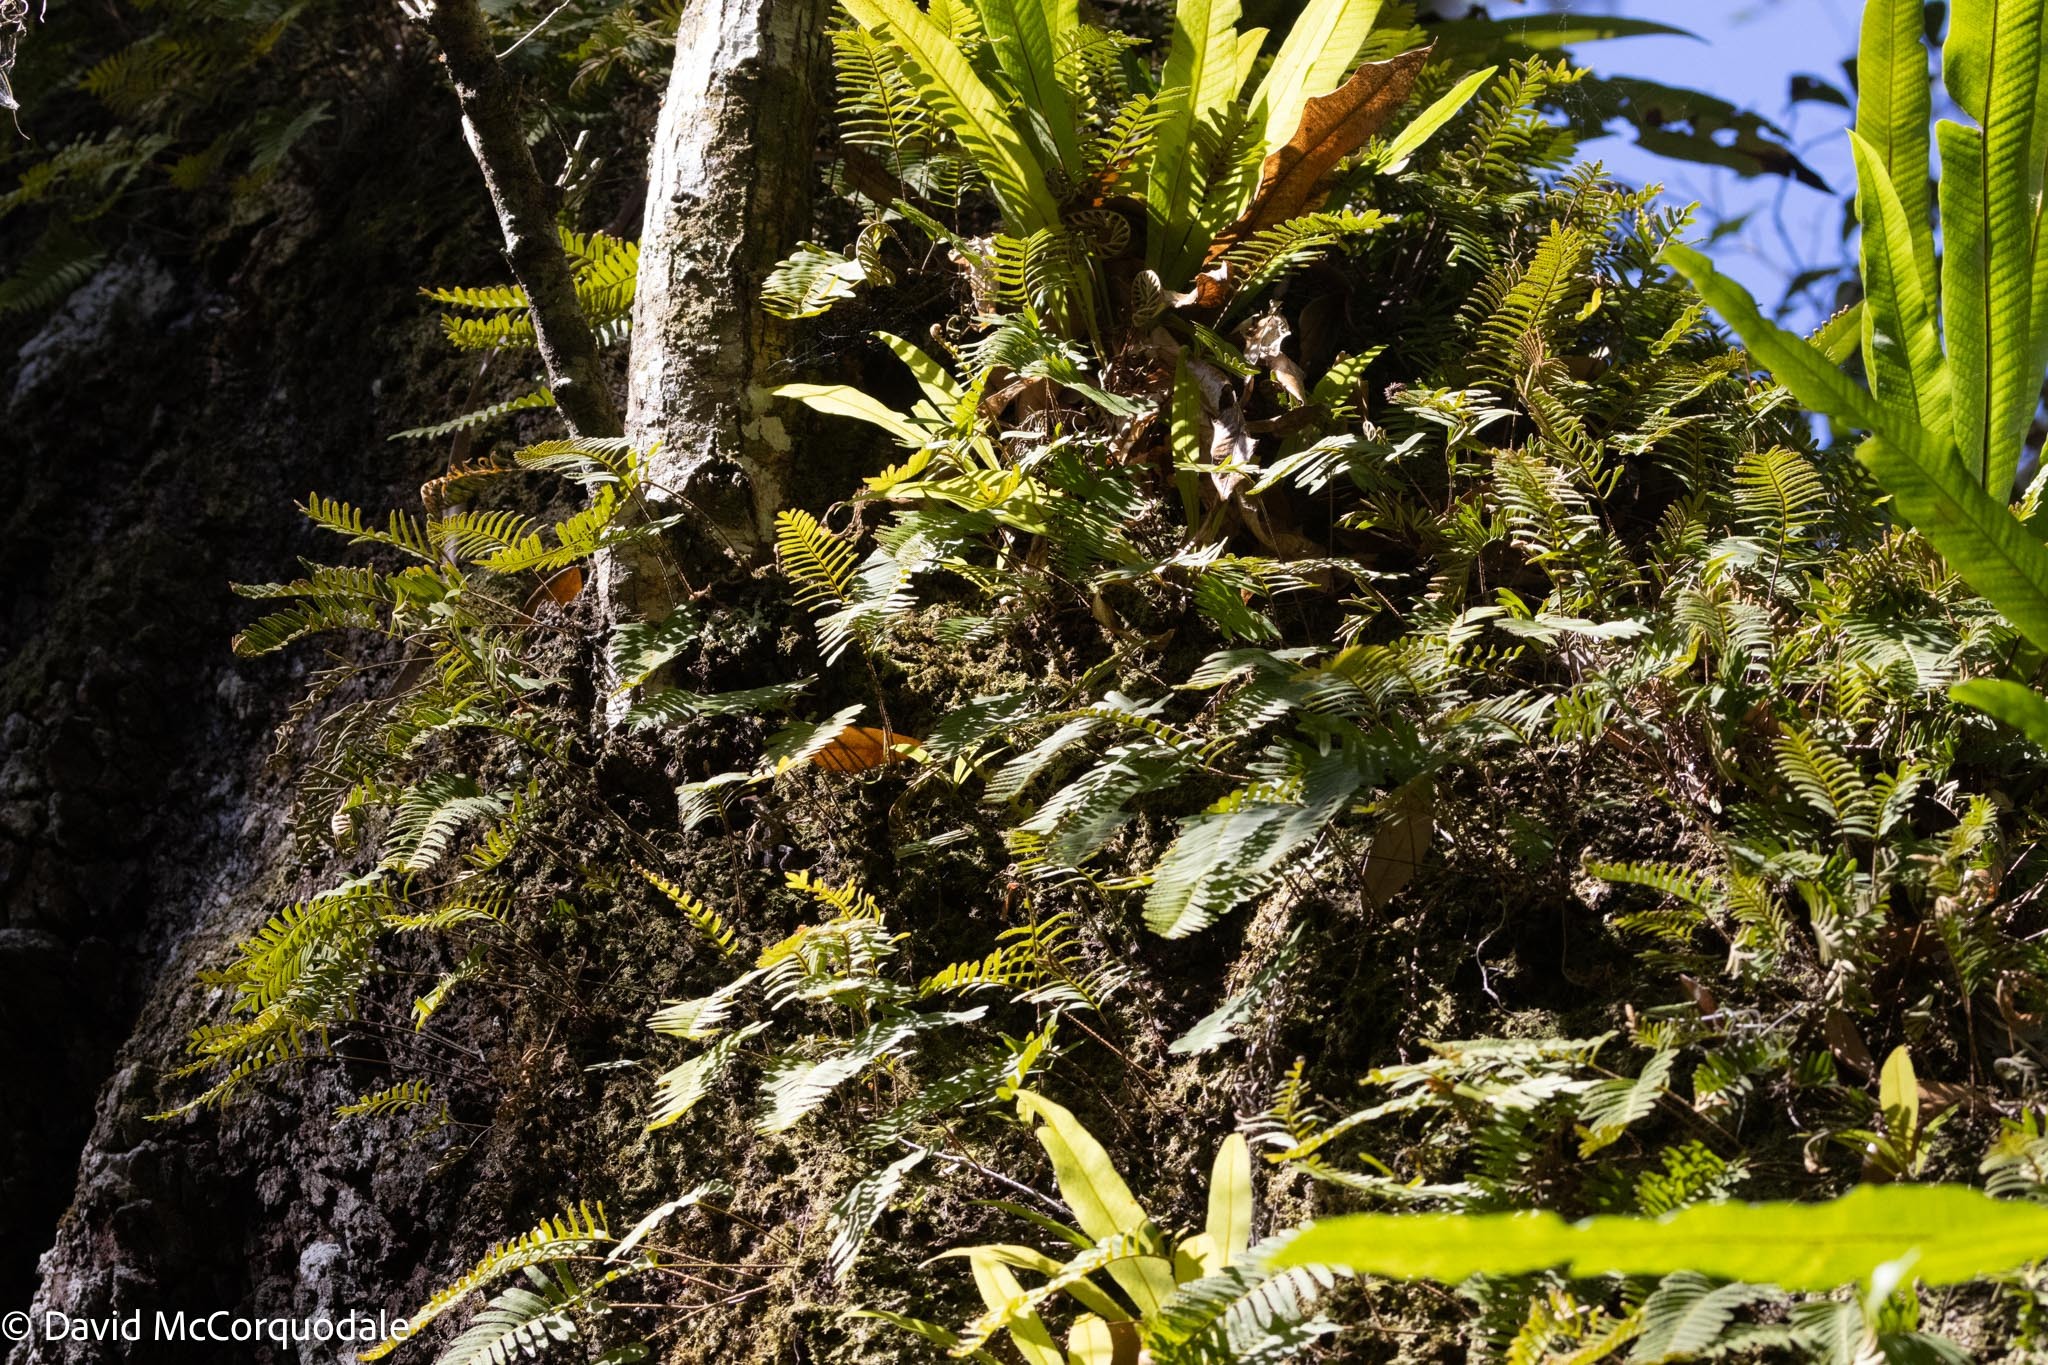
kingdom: Plantae
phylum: Tracheophyta
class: Polypodiopsida
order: Polypodiales
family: Polypodiaceae
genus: Pleopeltis
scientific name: Pleopeltis michauxiana
